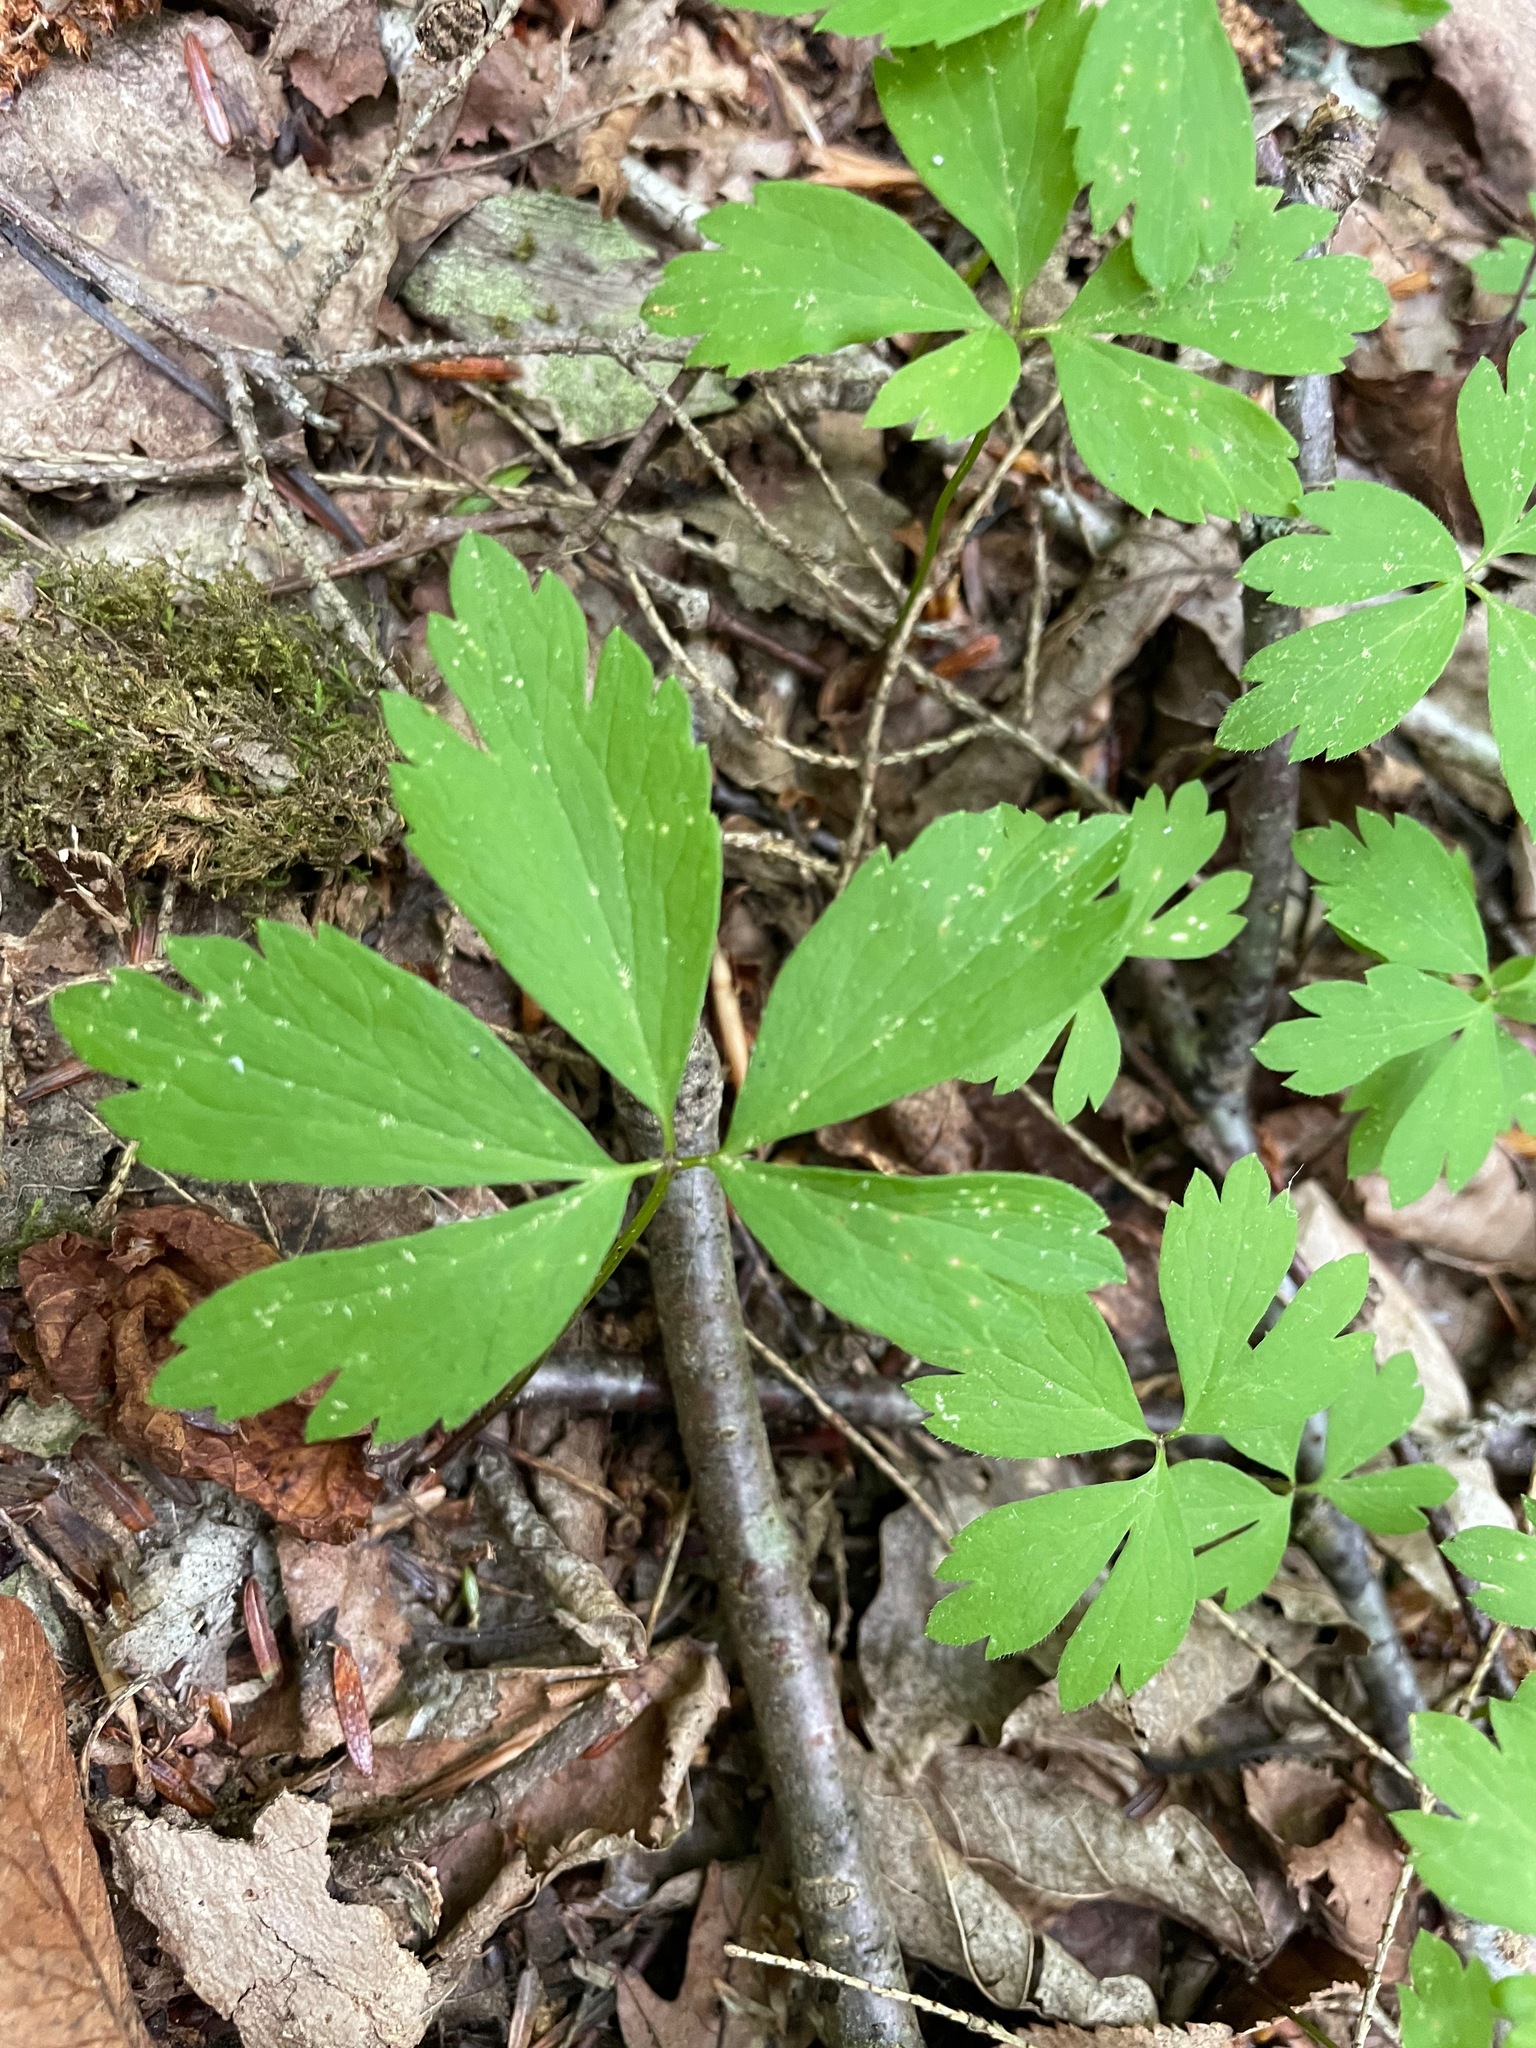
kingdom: Plantae
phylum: Tracheophyta
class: Magnoliopsida
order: Ranunculales
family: Ranunculaceae
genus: Anemone
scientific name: Anemone quinquefolia
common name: Wood anemone
